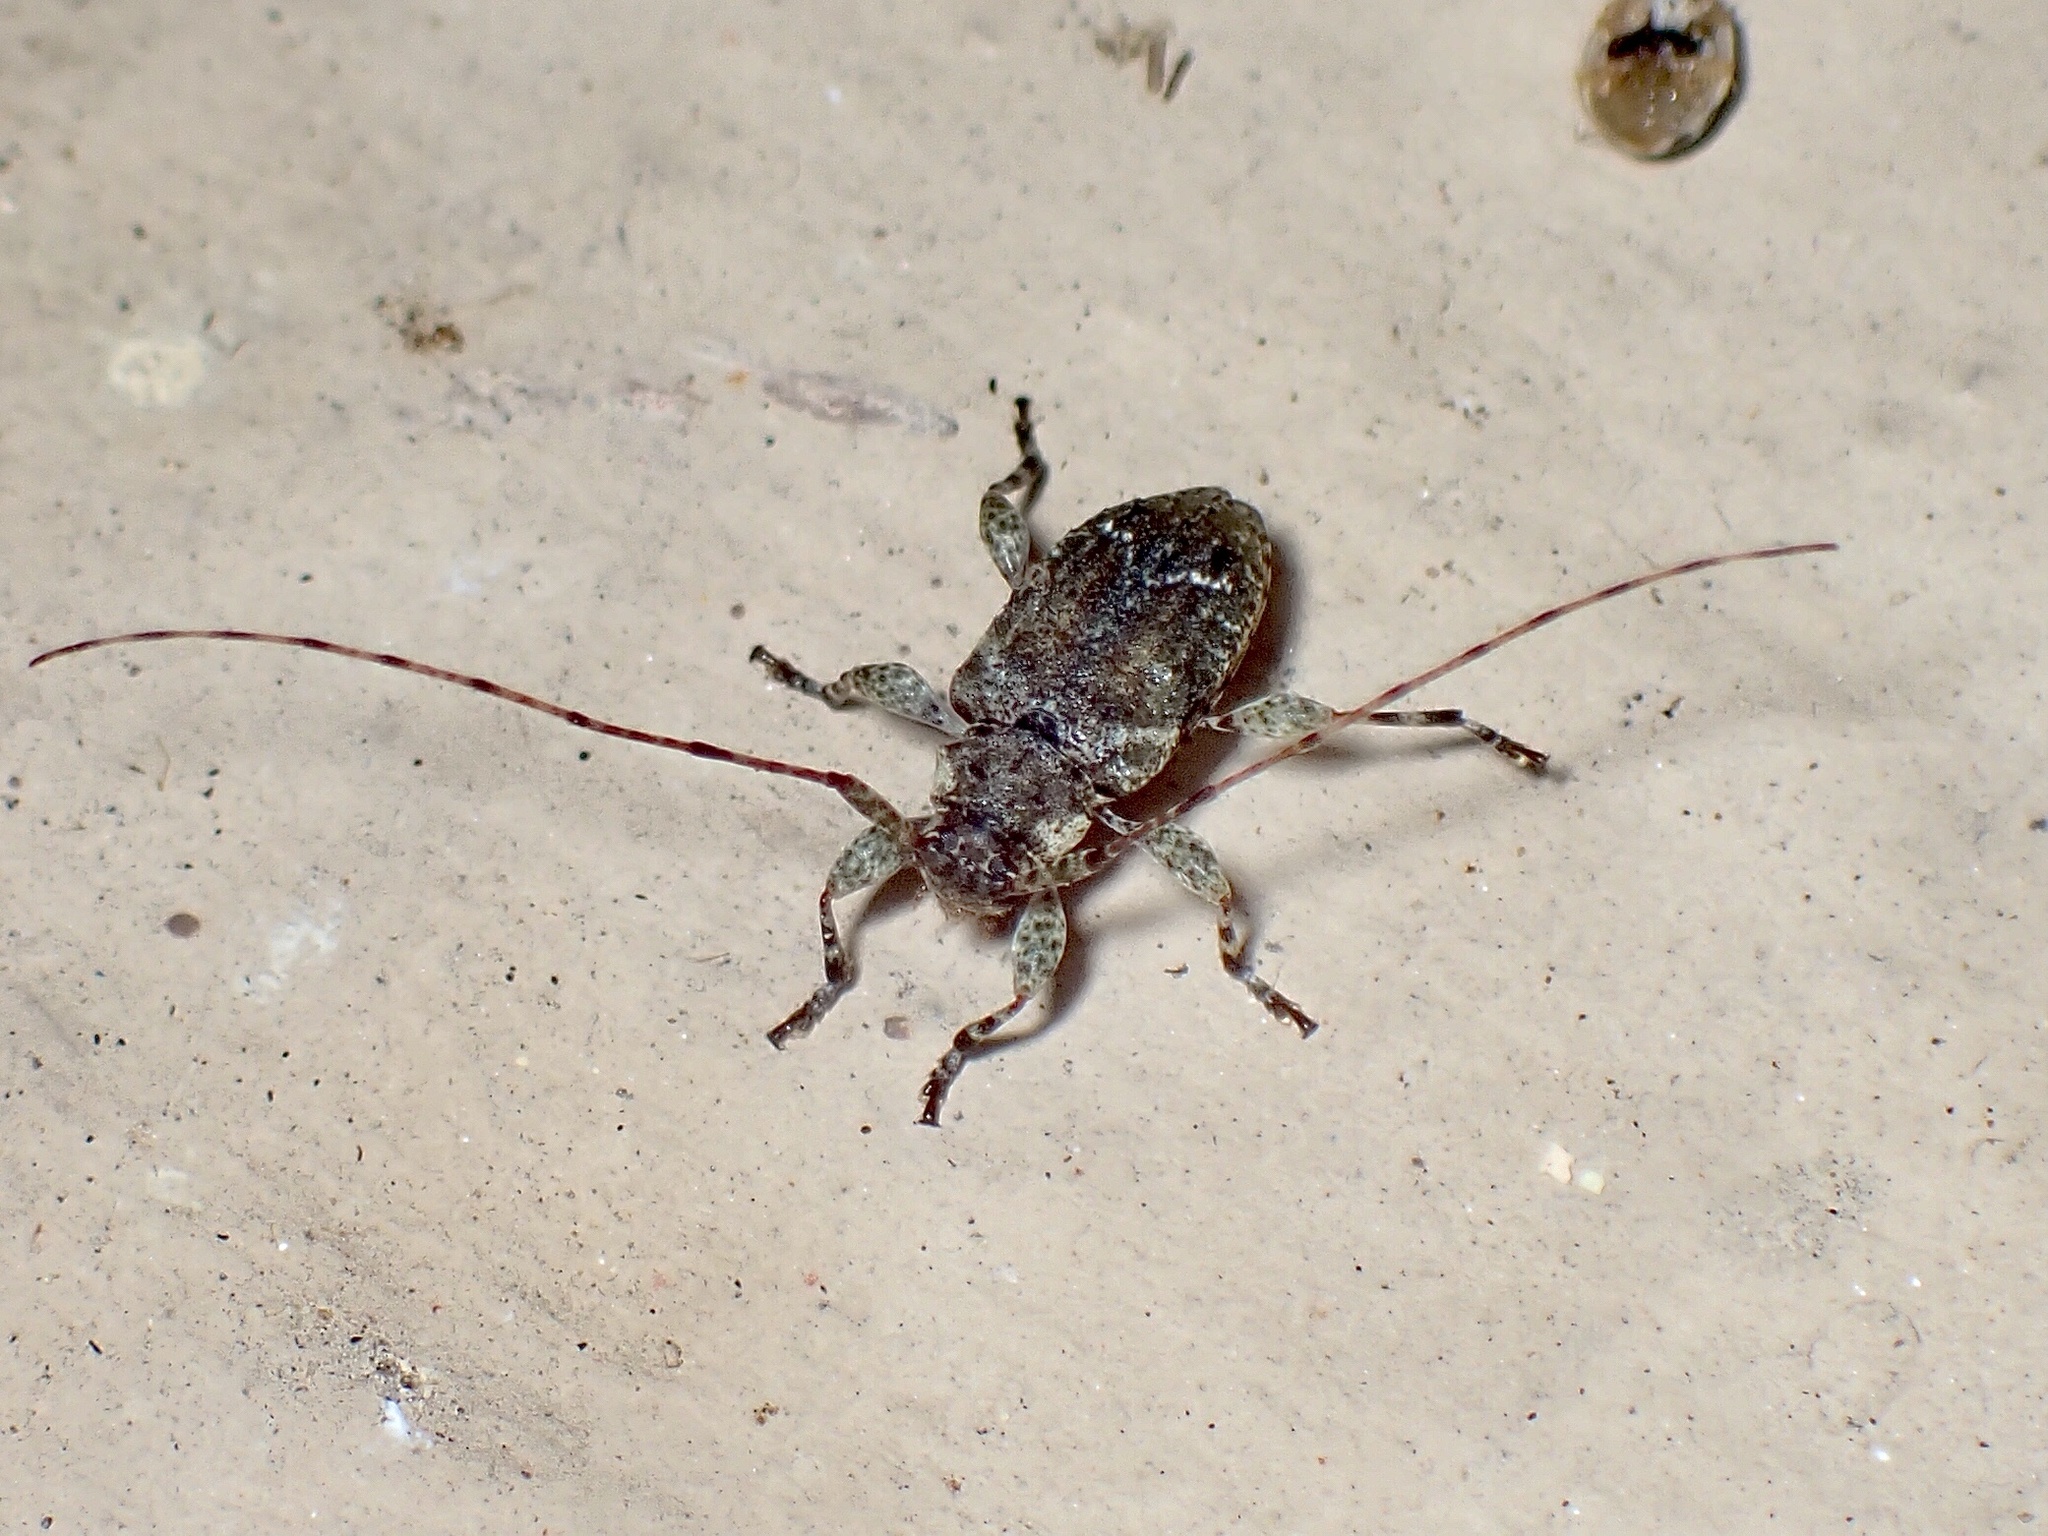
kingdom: Animalia
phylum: Arthropoda
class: Insecta
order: Coleoptera
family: Cerambycidae
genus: Sternidius
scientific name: Sternidius punctatus
